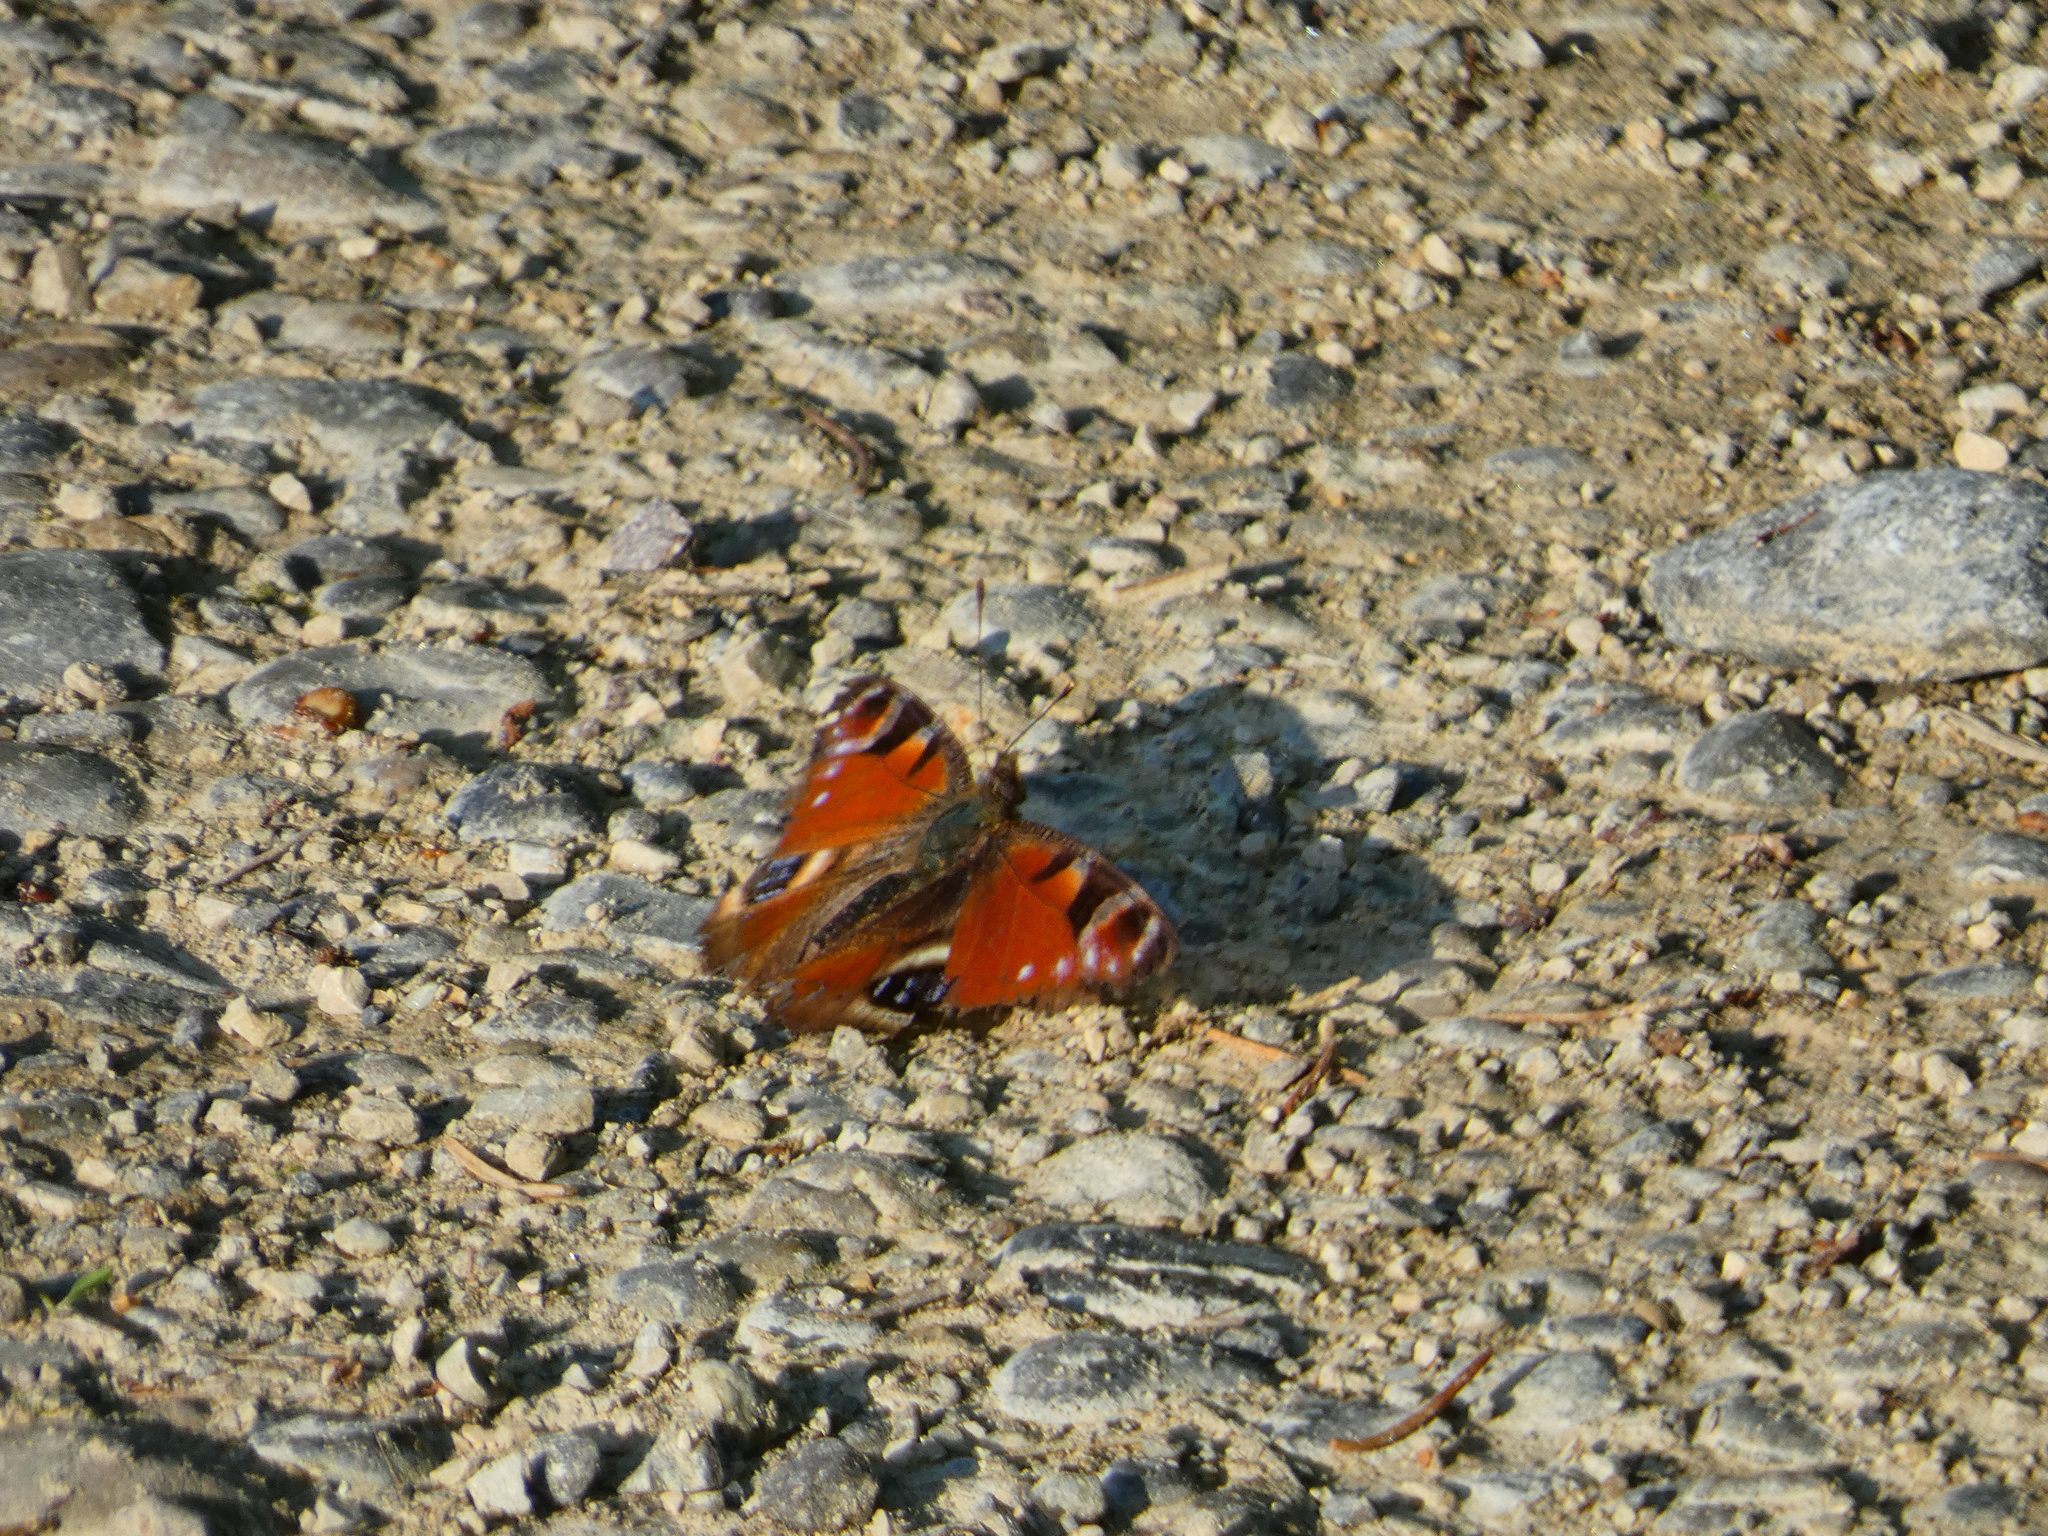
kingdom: Animalia
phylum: Arthropoda
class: Insecta
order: Lepidoptera
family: Nymphalidae
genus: Aglais
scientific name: Aglais io
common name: Peacock
